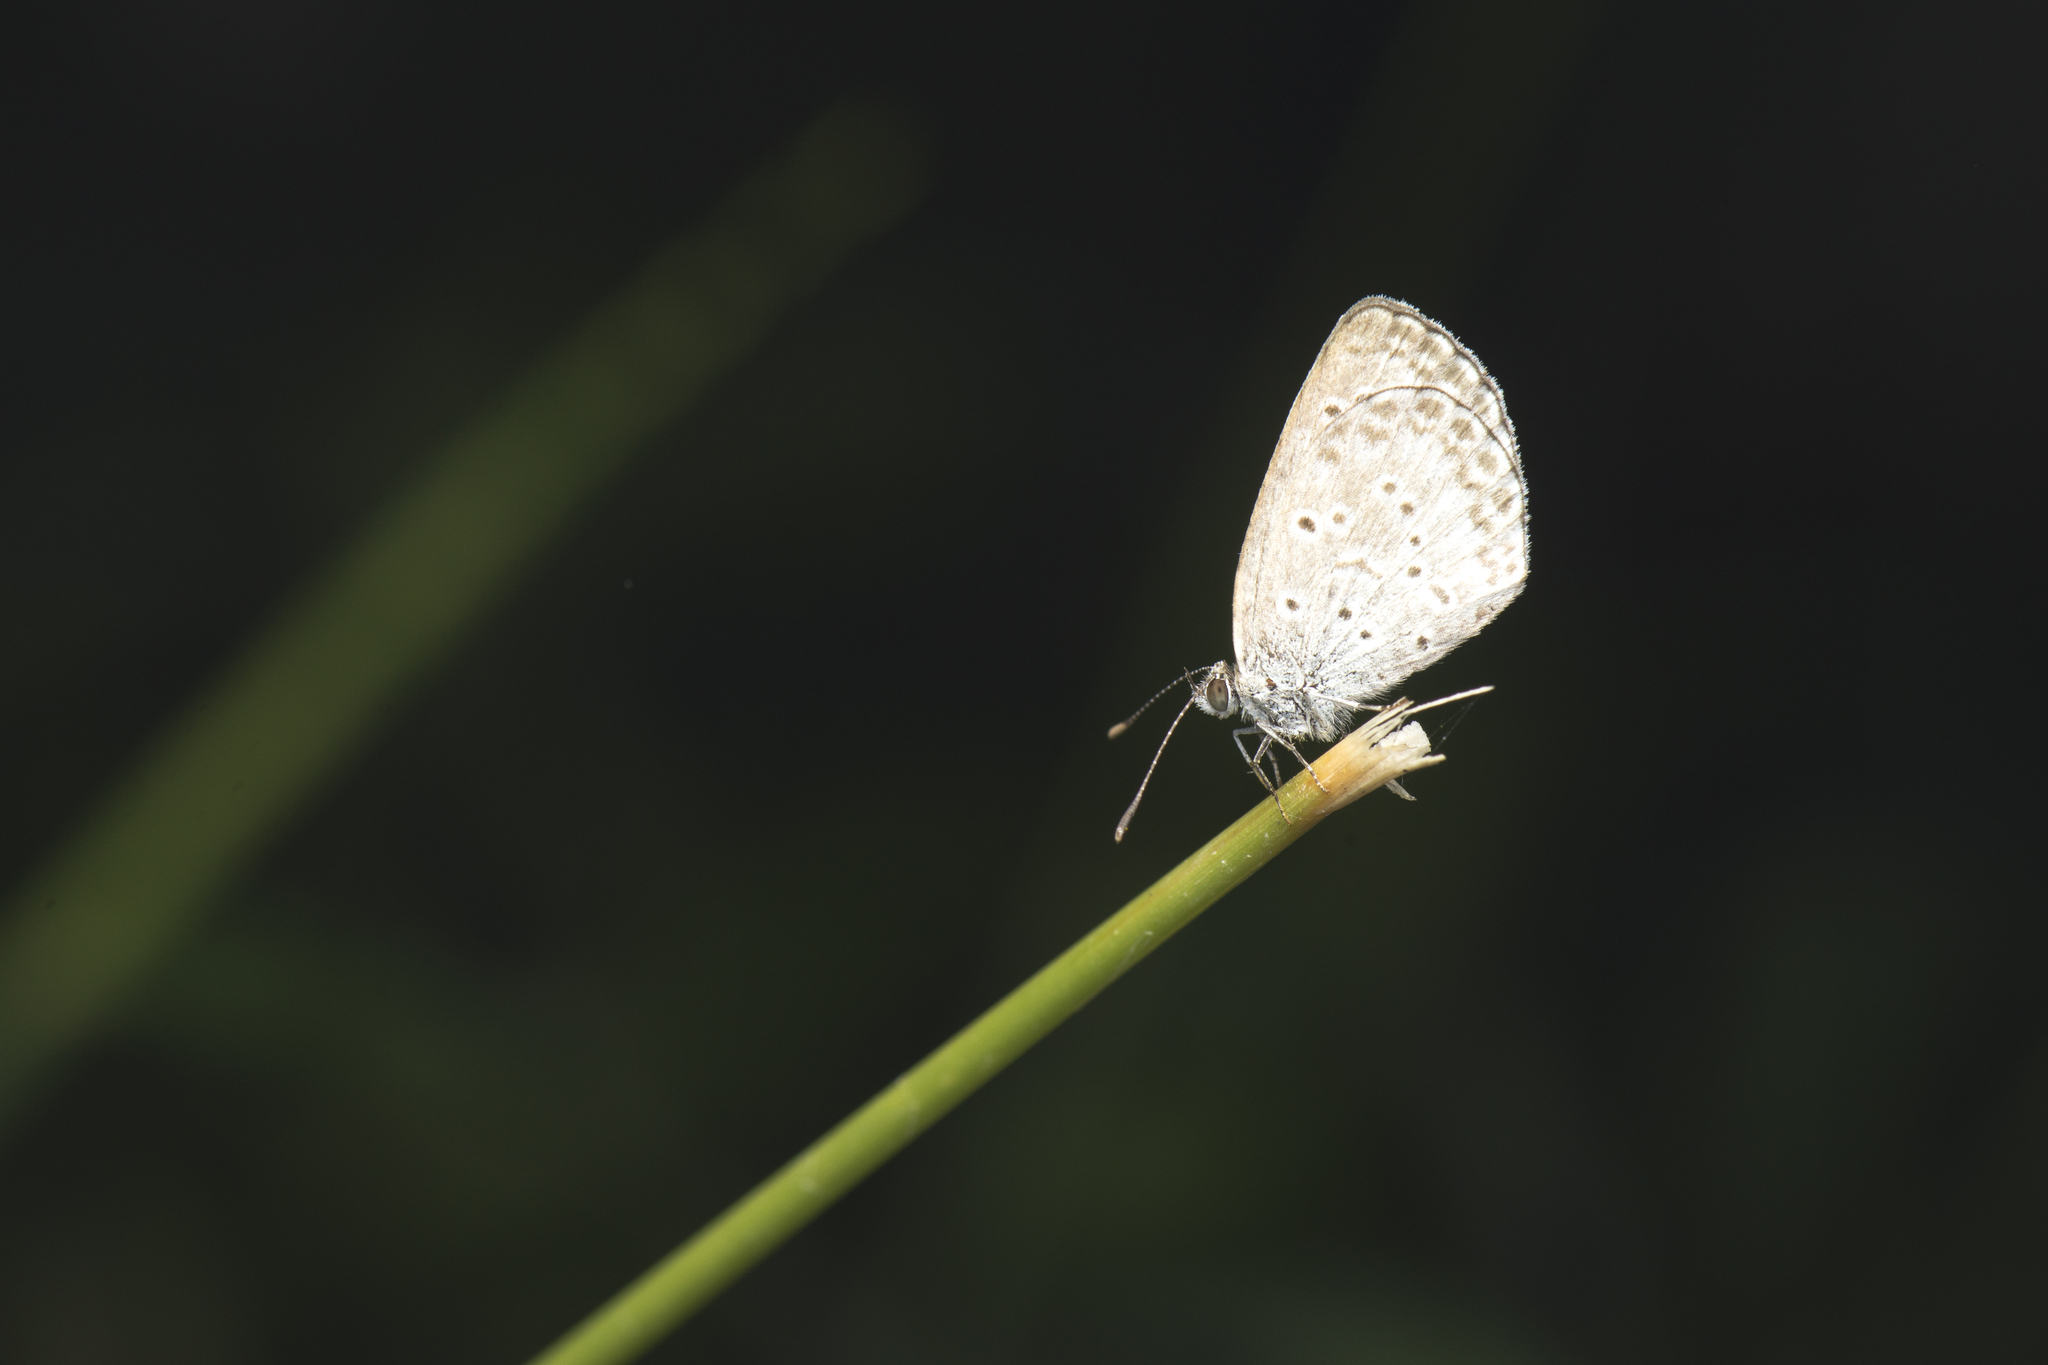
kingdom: Animalia
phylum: Arthropoda
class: Insecta
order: Lepidoptera
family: Lycaenidae
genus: Pseudozizeeria
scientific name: Pseudozizeeria maha
